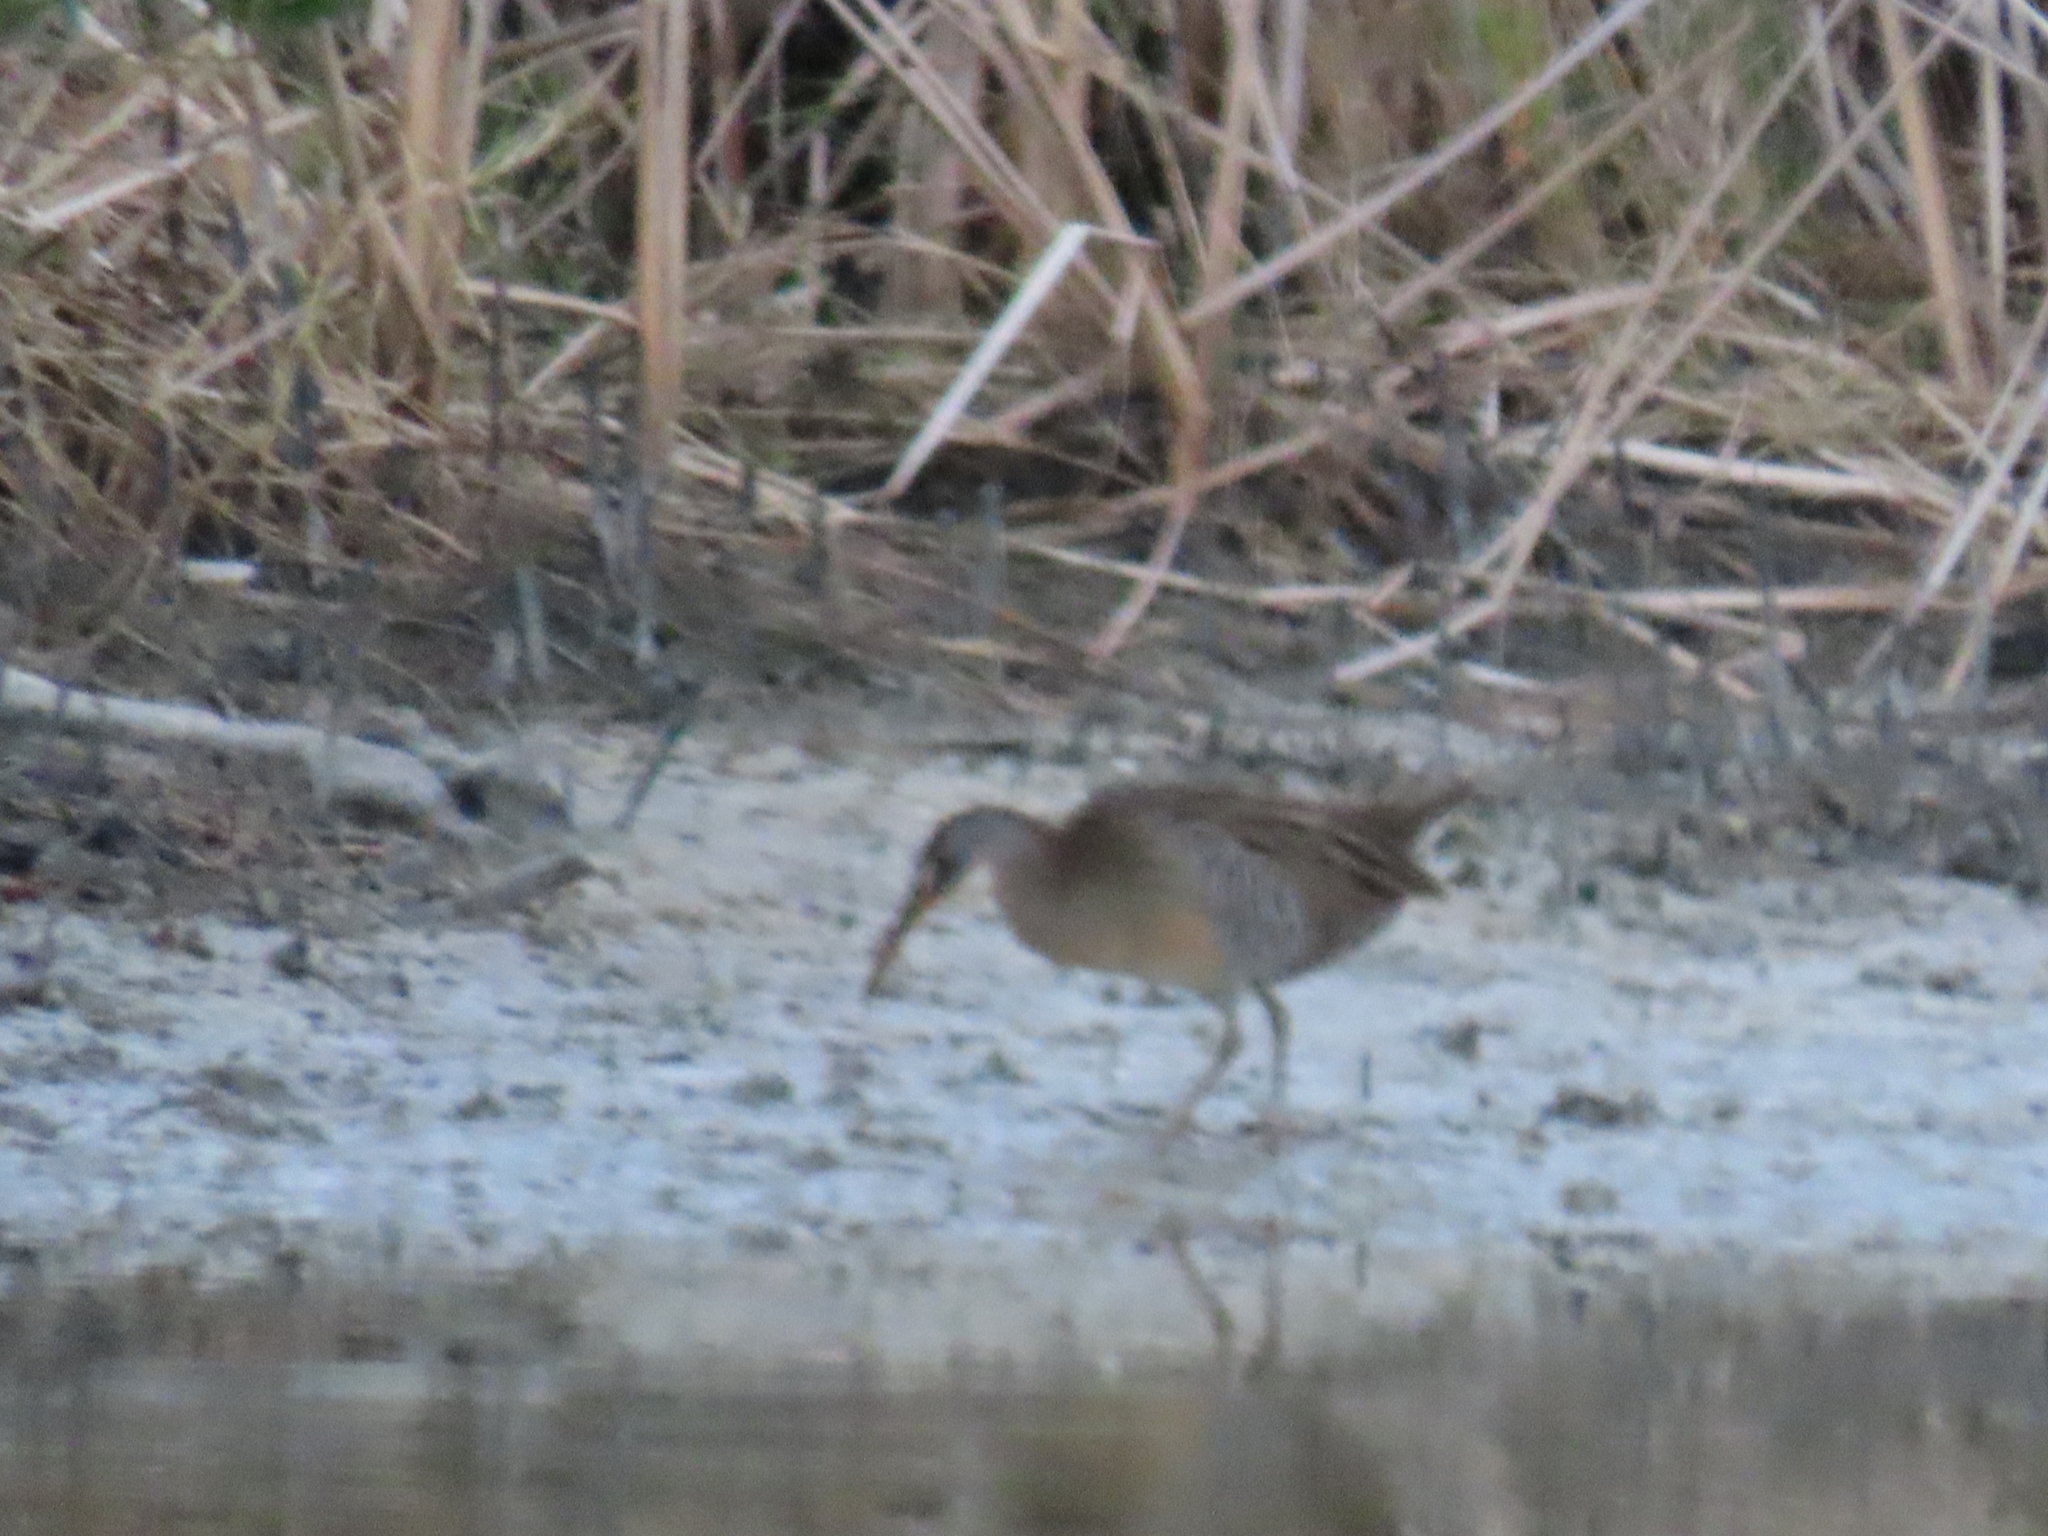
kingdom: Animalia
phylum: Chordata
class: Aves
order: Gruiformes
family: Rallidae
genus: Rallus
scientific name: Rallus crepitans
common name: Clapper rail
